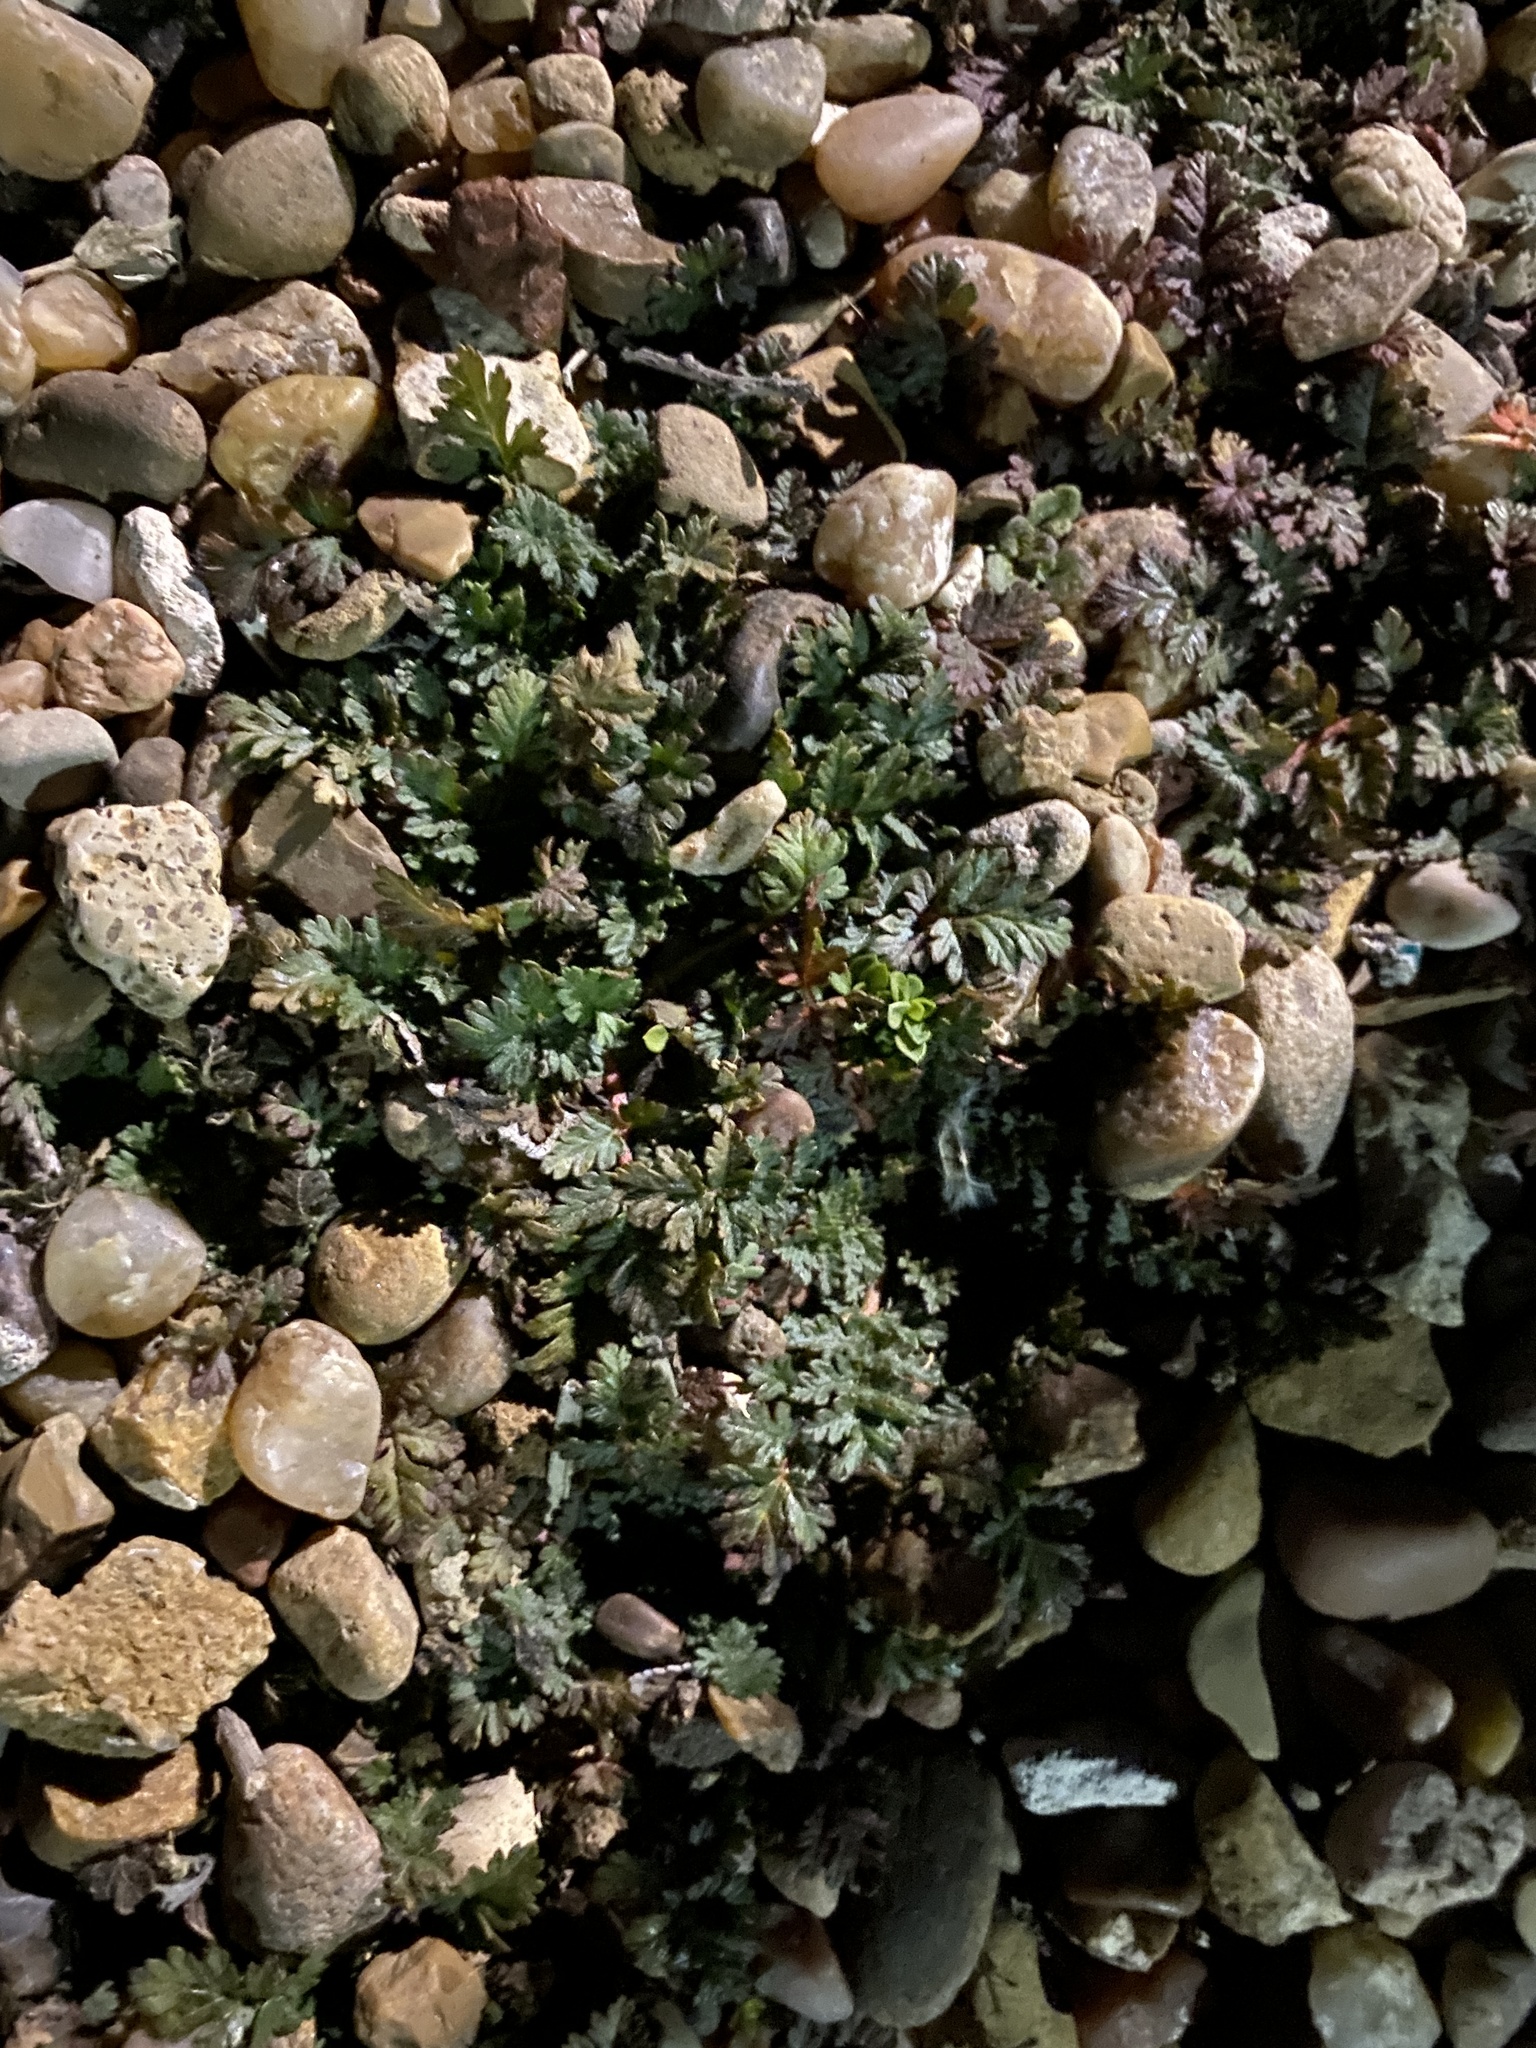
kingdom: Plantae
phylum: Tracheophyta
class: Magnoliopsida
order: Geraniales
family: Geraniaceae
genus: Erodium
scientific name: Erodium cicutarium
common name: Common stork's-bill
